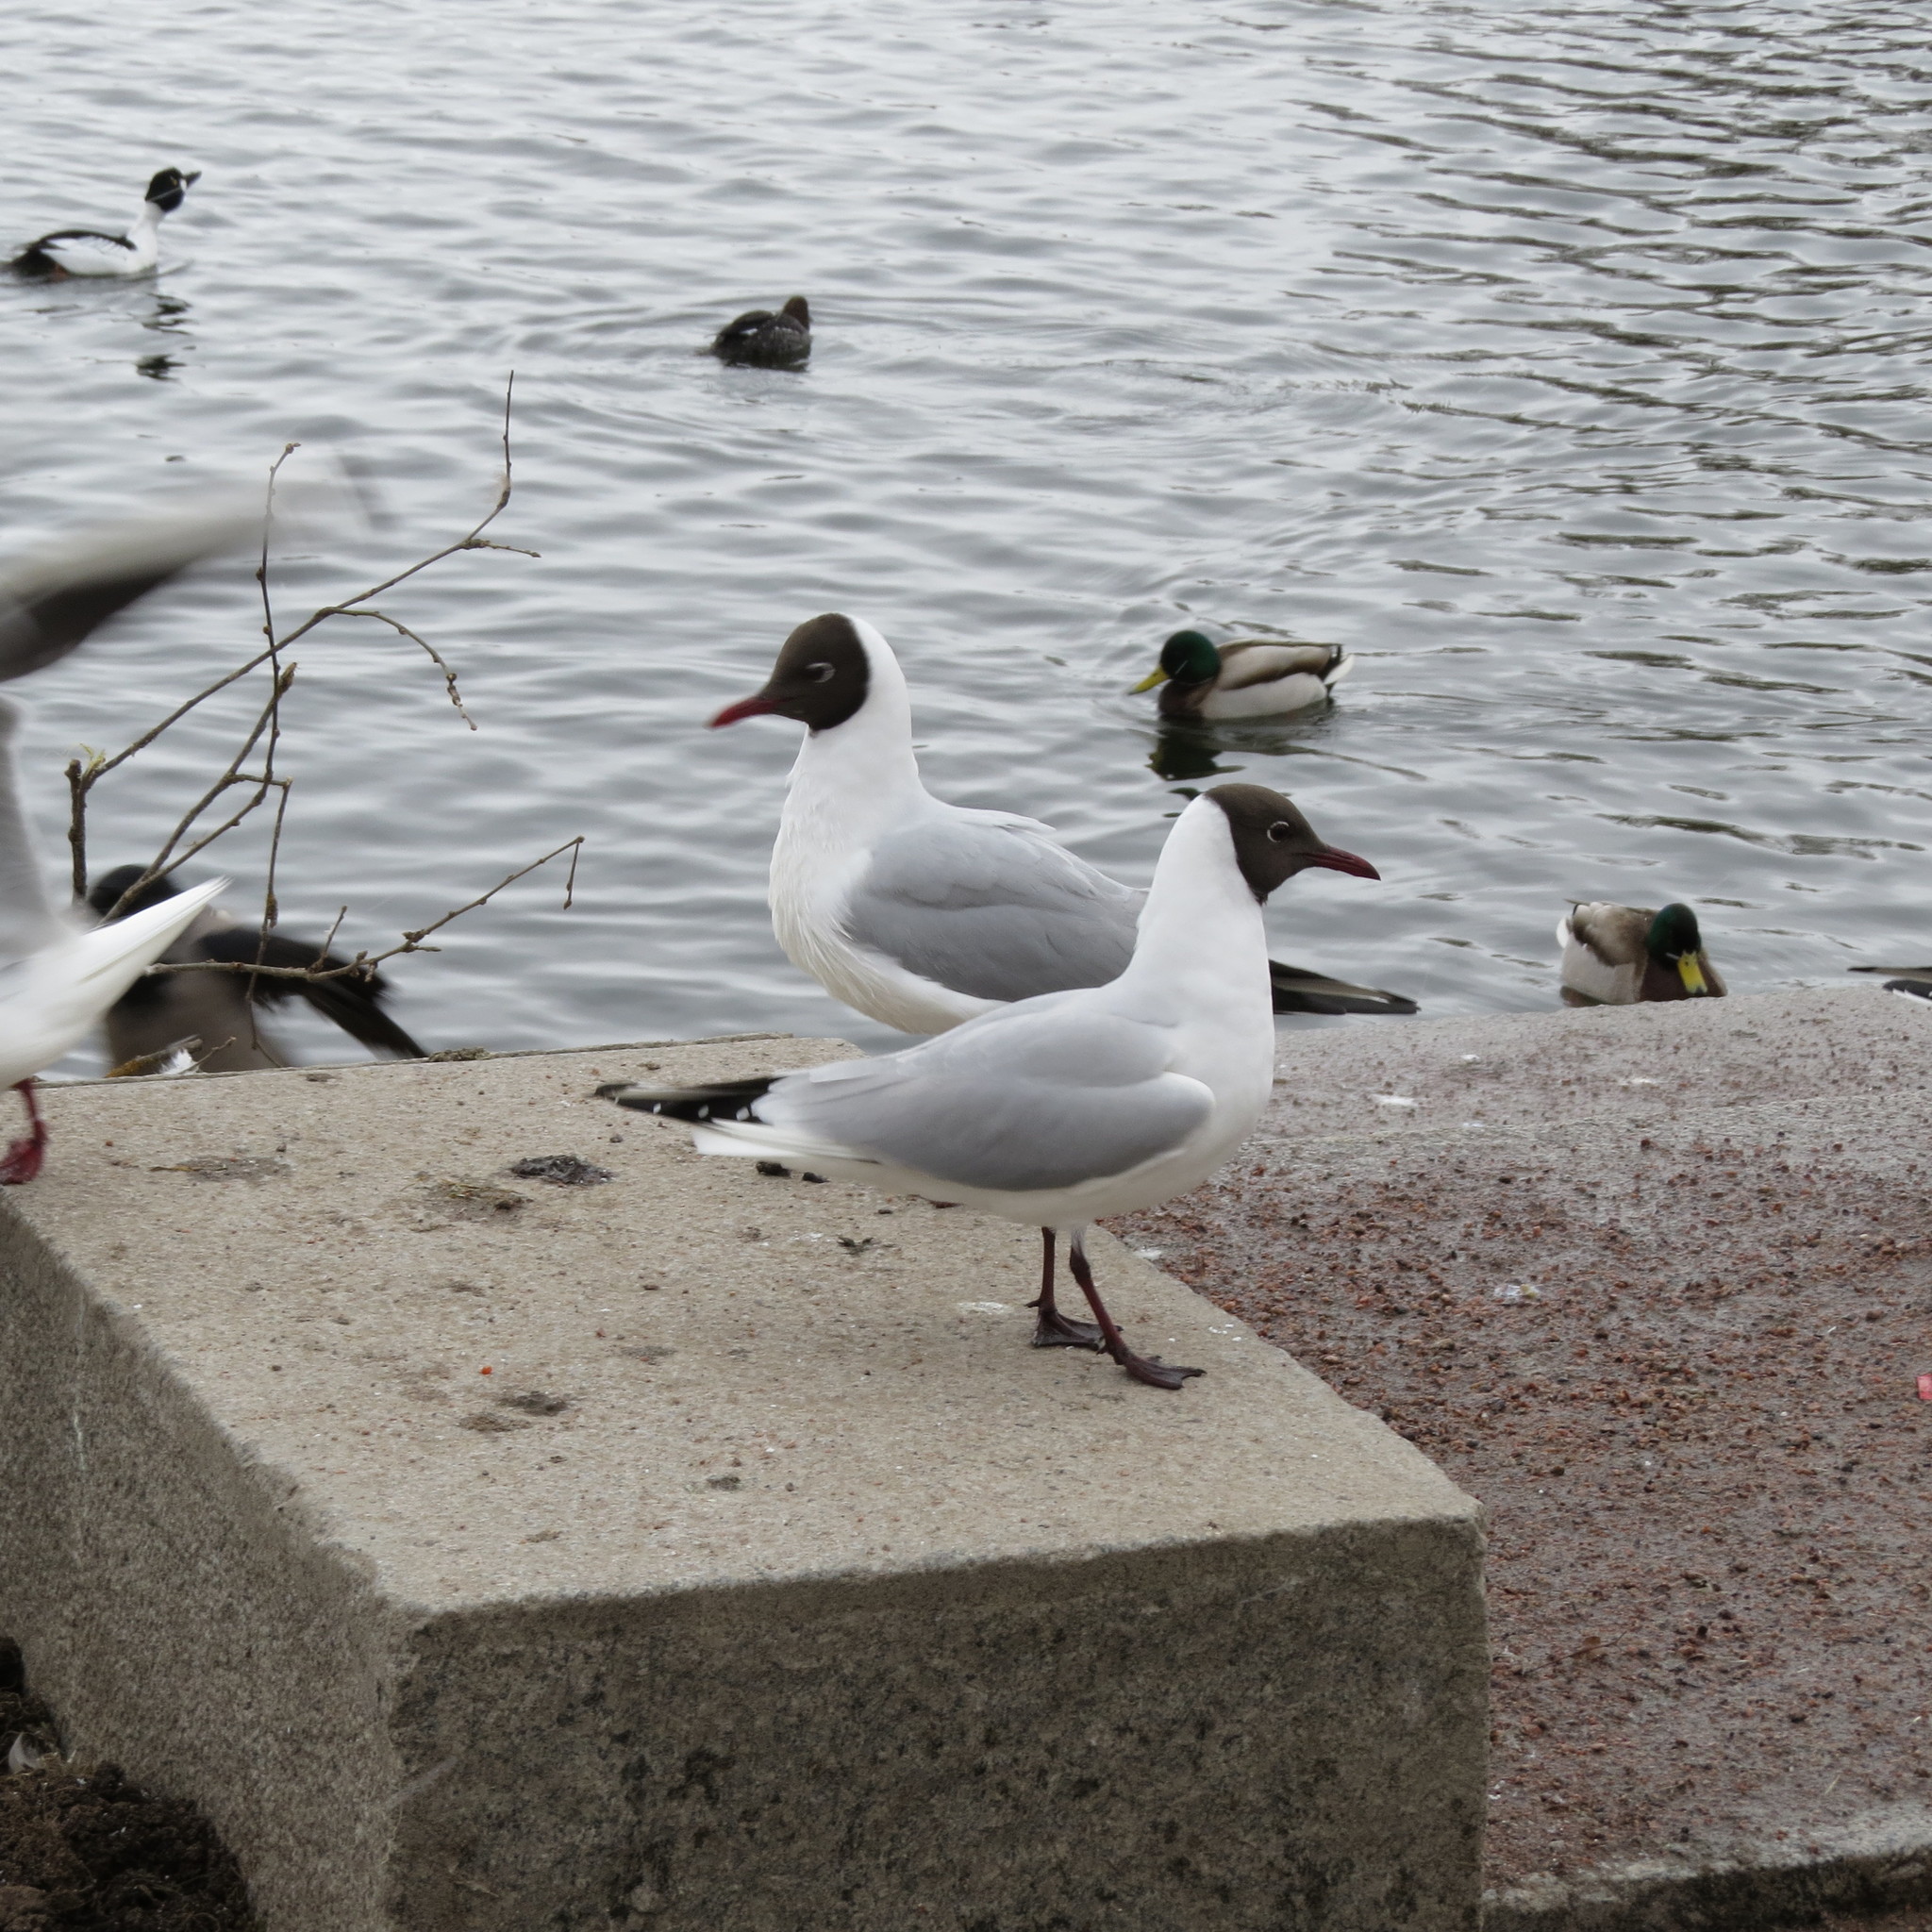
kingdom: Animalia
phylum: Chordata
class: Aves
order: Charadriiformes
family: Laridae
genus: Chroicocephalus
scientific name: Chroicocephalus ridibundus
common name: Black-headed gull
